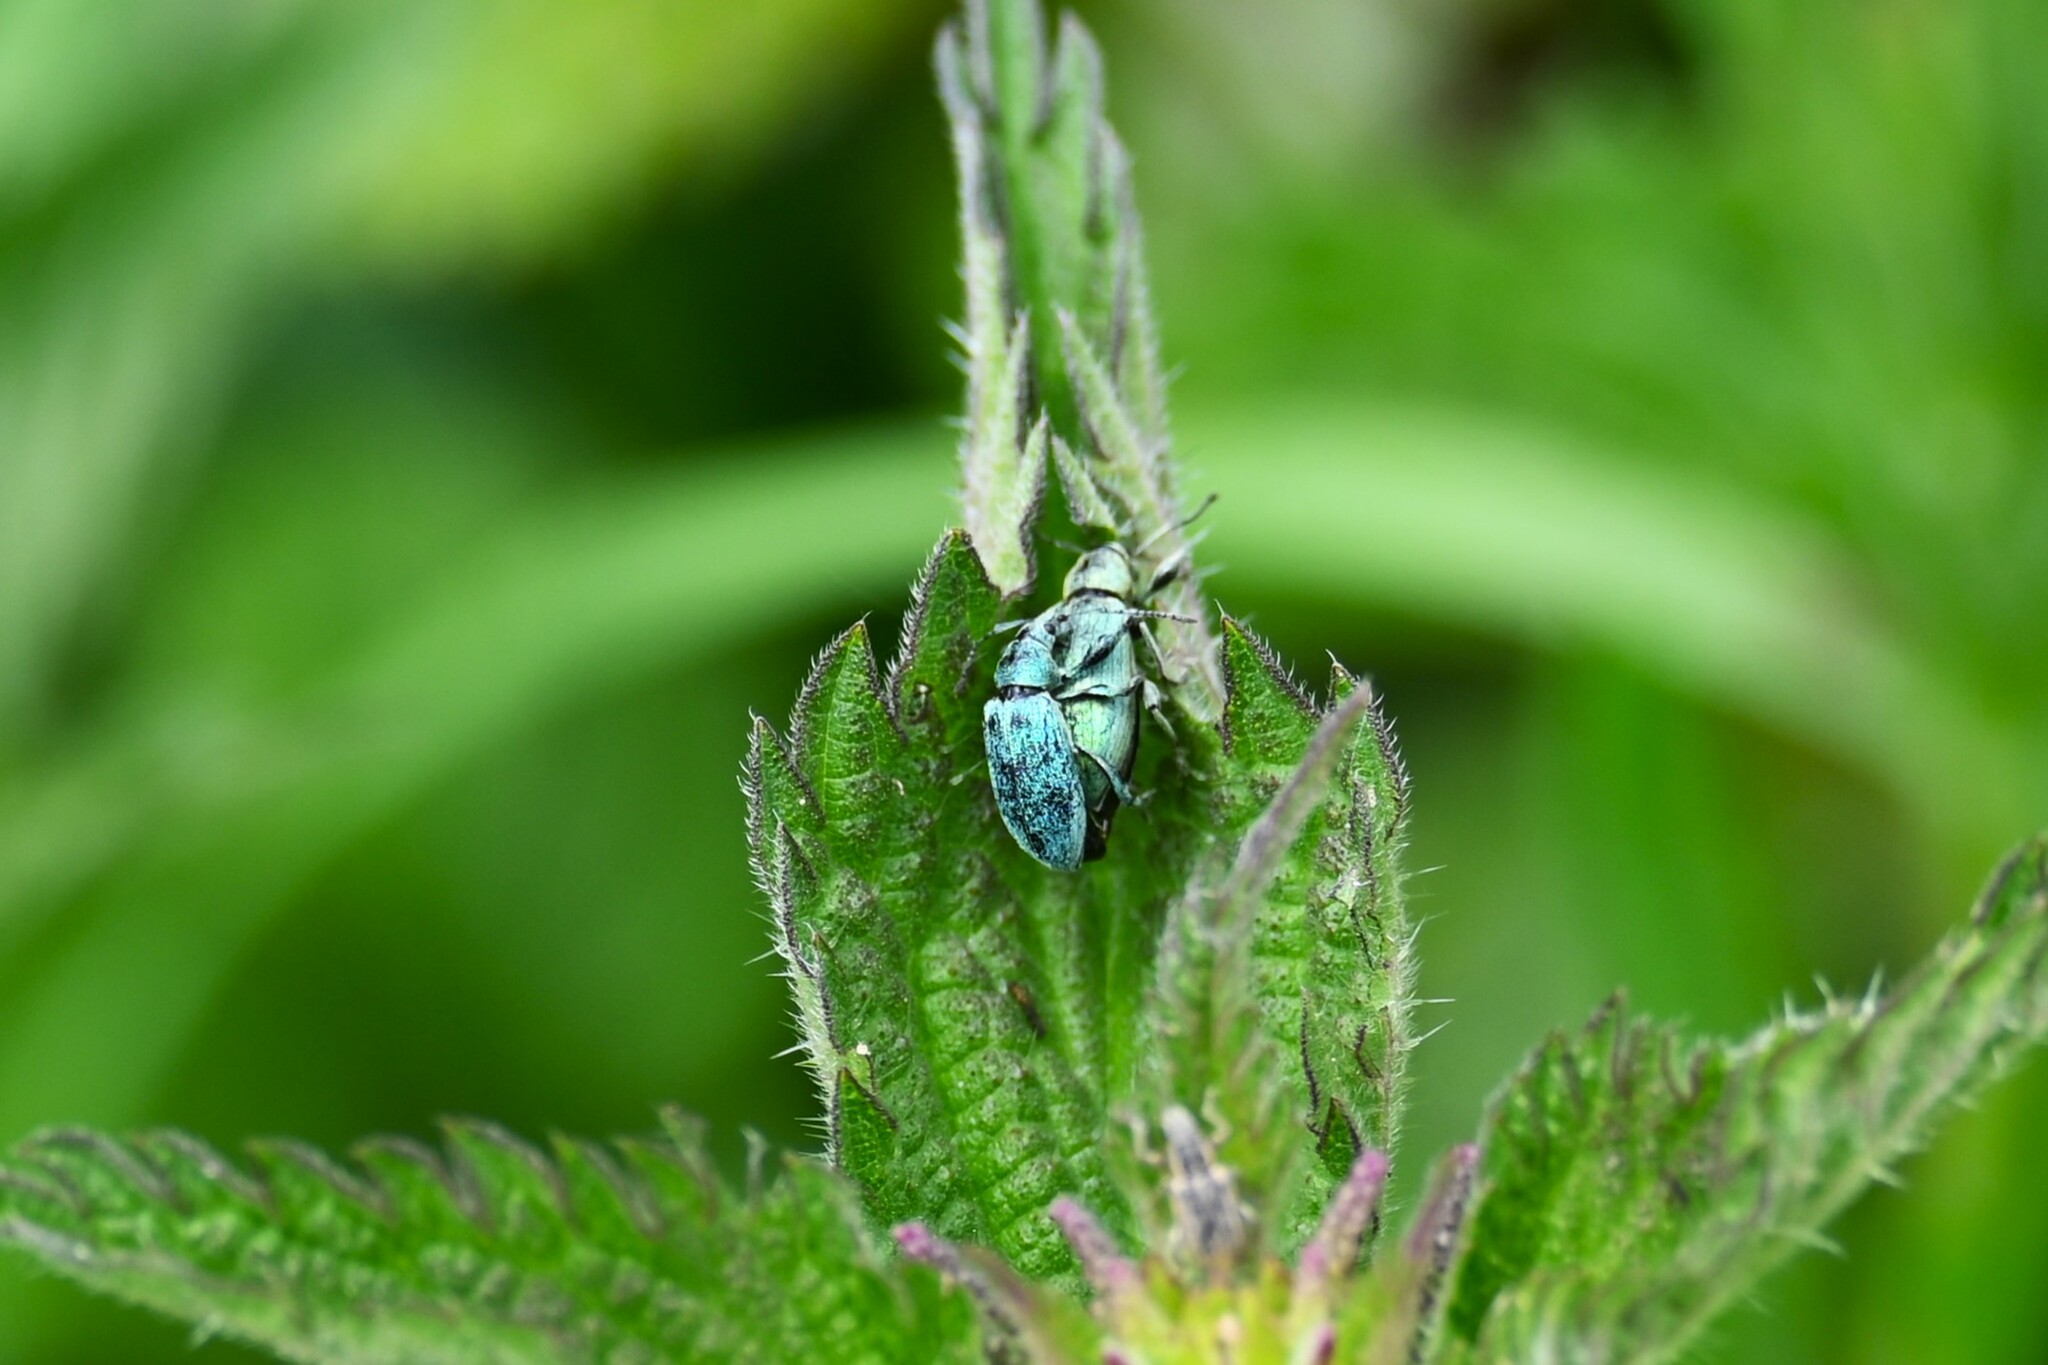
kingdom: Animalia
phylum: Arthropoda
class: Insecta
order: Coleoptera
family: Curculionidae
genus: Phyllobius
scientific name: Phyllobius pomaceus
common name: Green nettle weevil
